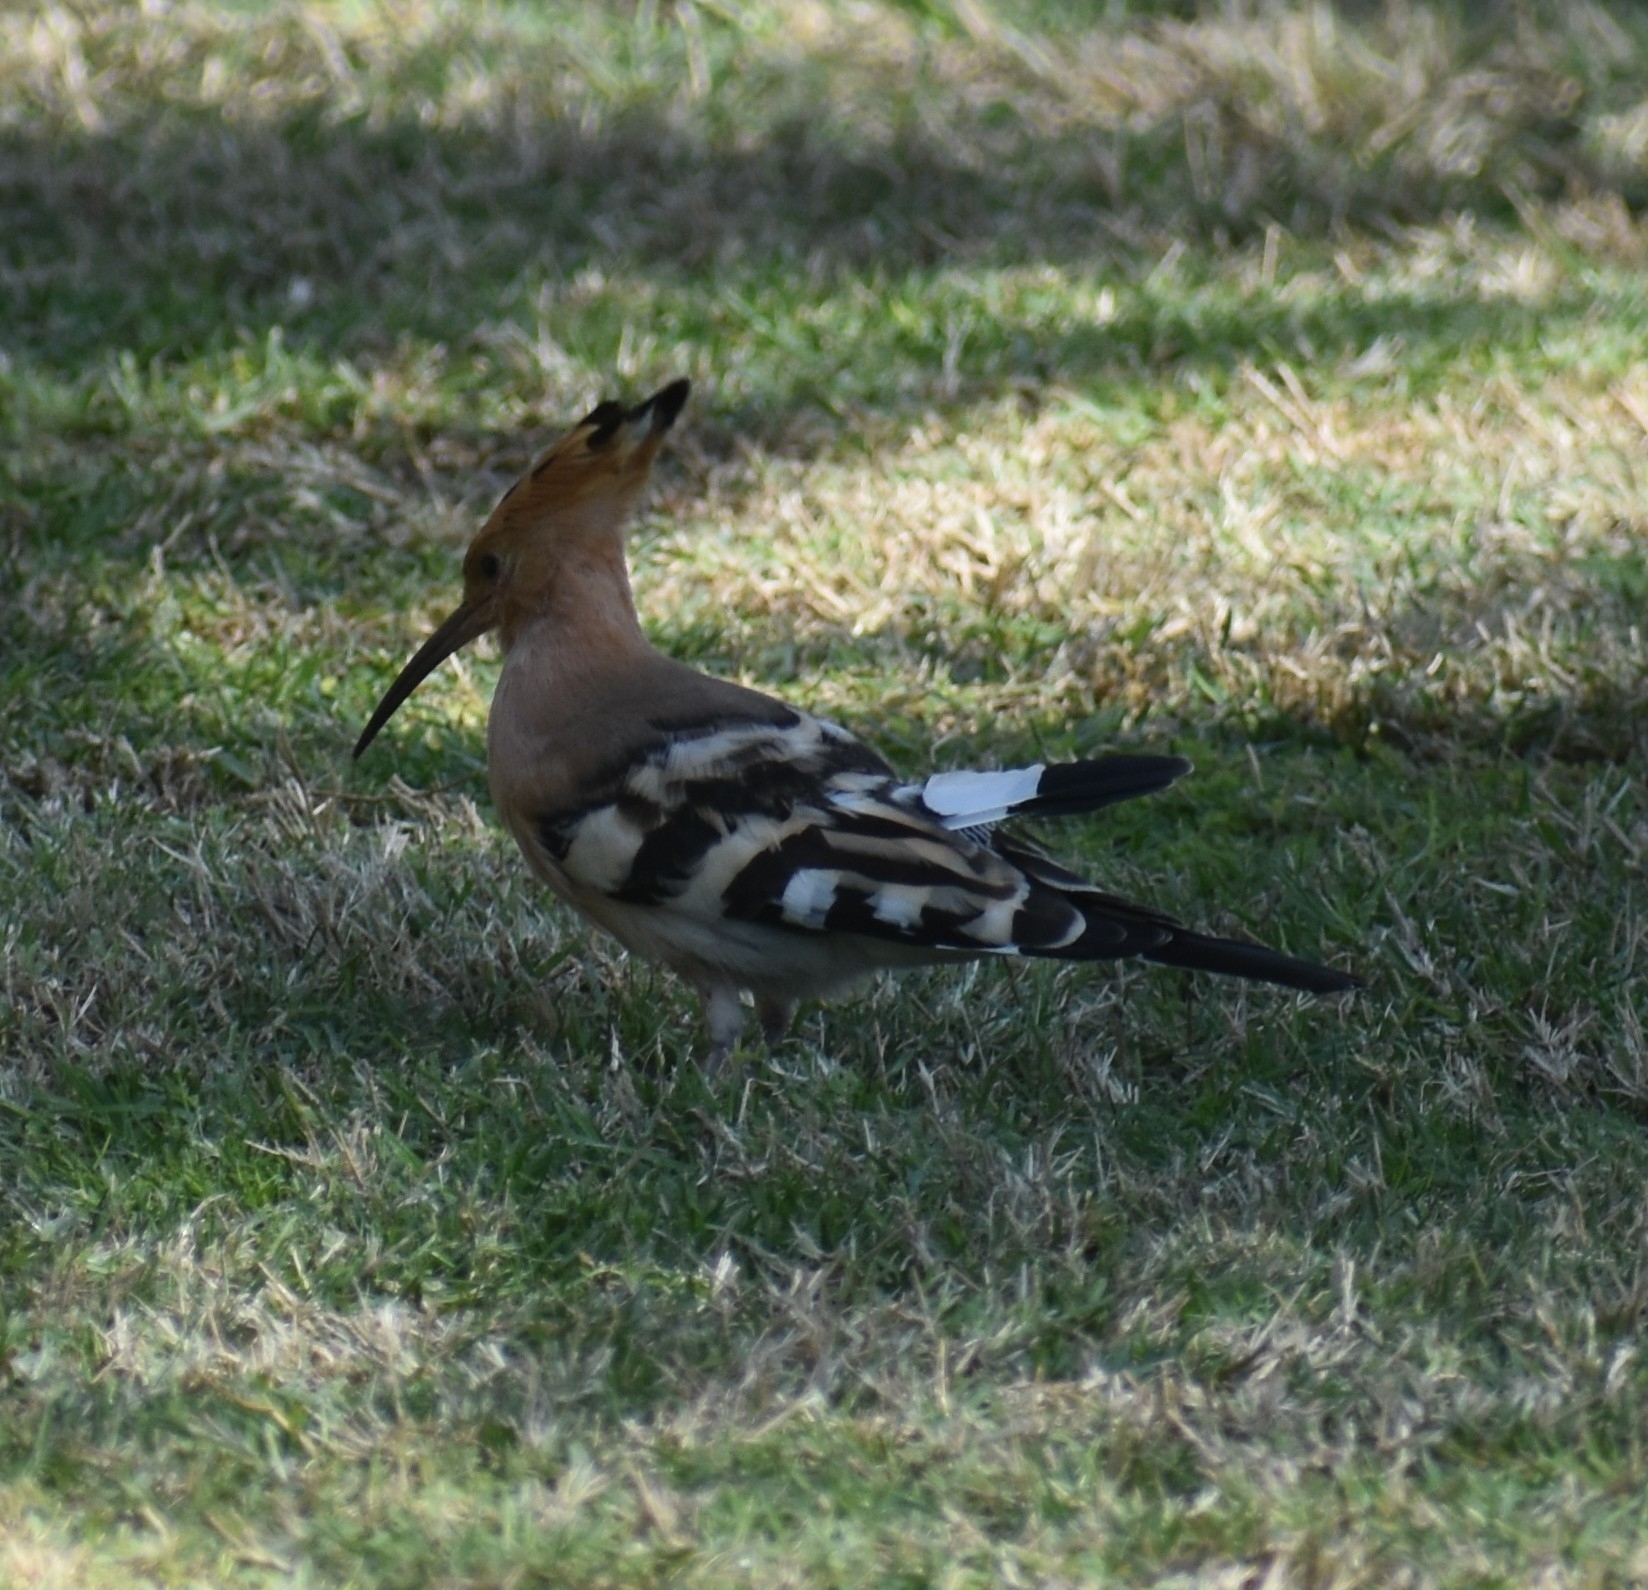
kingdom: Animalia
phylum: Chordata
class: Aves
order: Bucerotiformes
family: Upupidae
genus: Upupa
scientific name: Upupa epops
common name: Eurasian hoopoe
